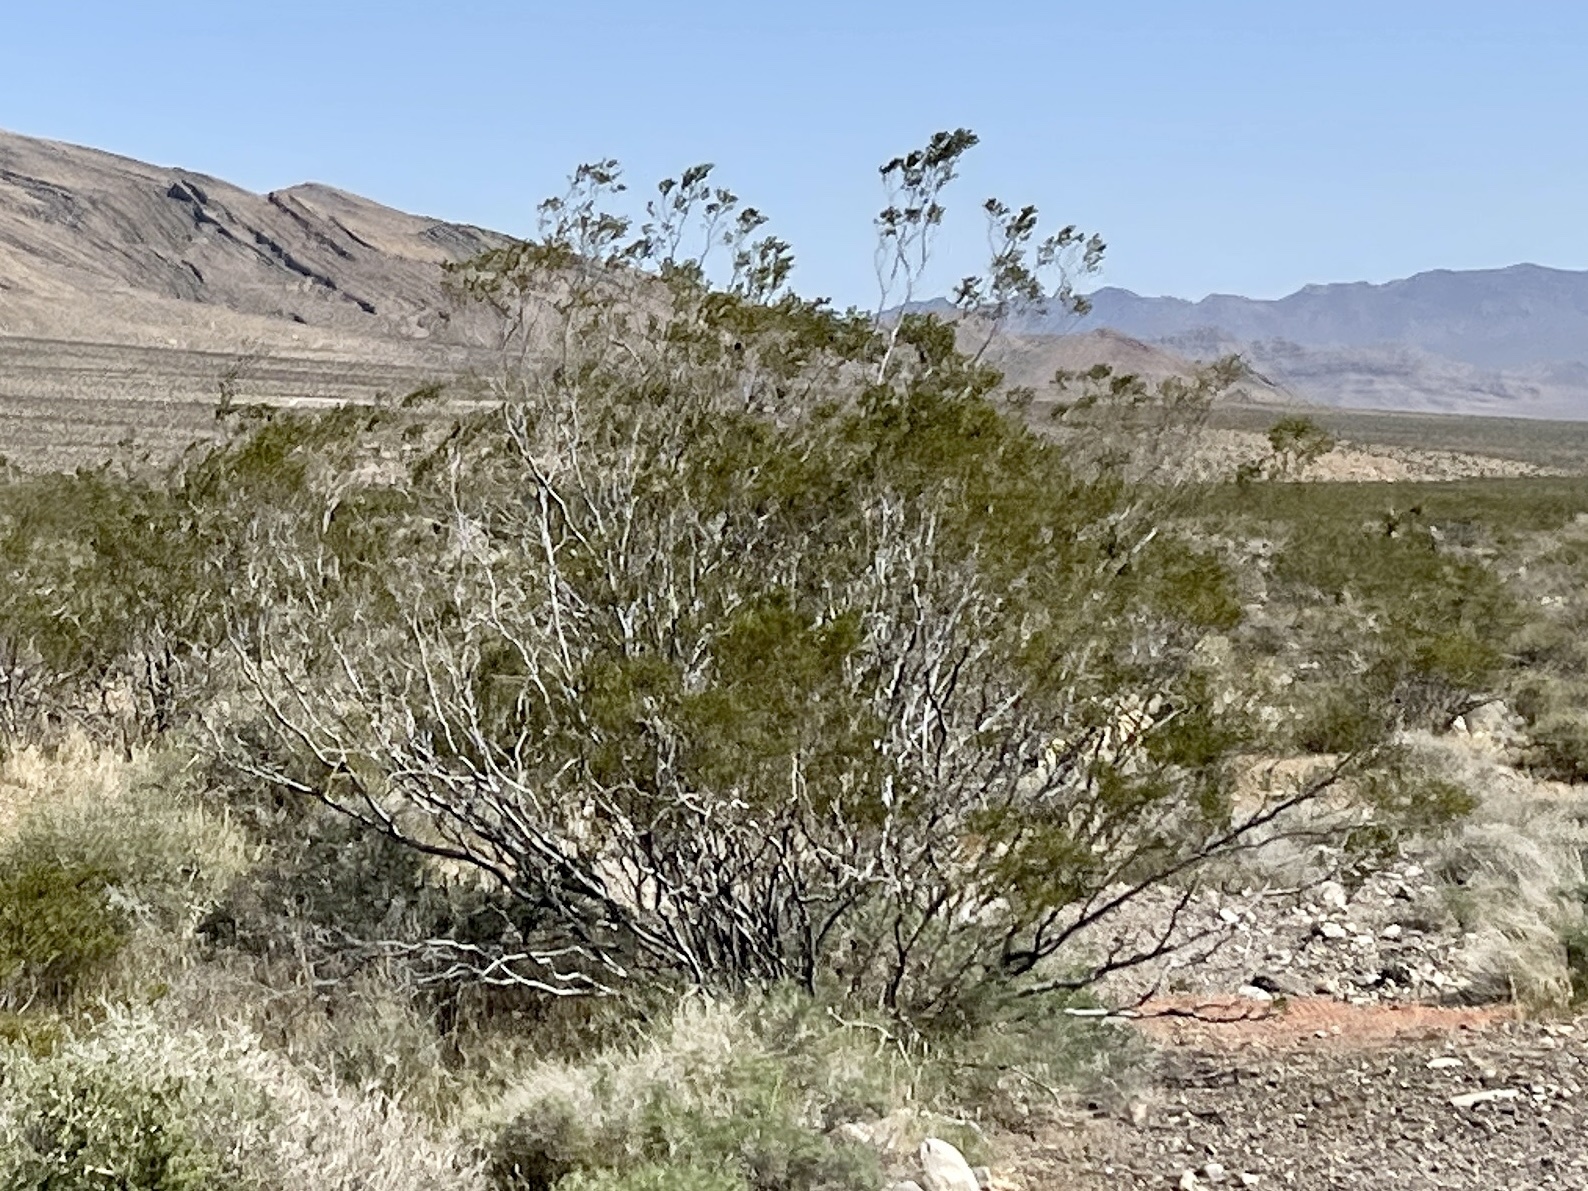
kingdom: Plantae
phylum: Tracheophyta
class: Magnoliopsida
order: Zygophyllales
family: Zygophyllaceae
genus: Larrea
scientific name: Larrea tridentata
